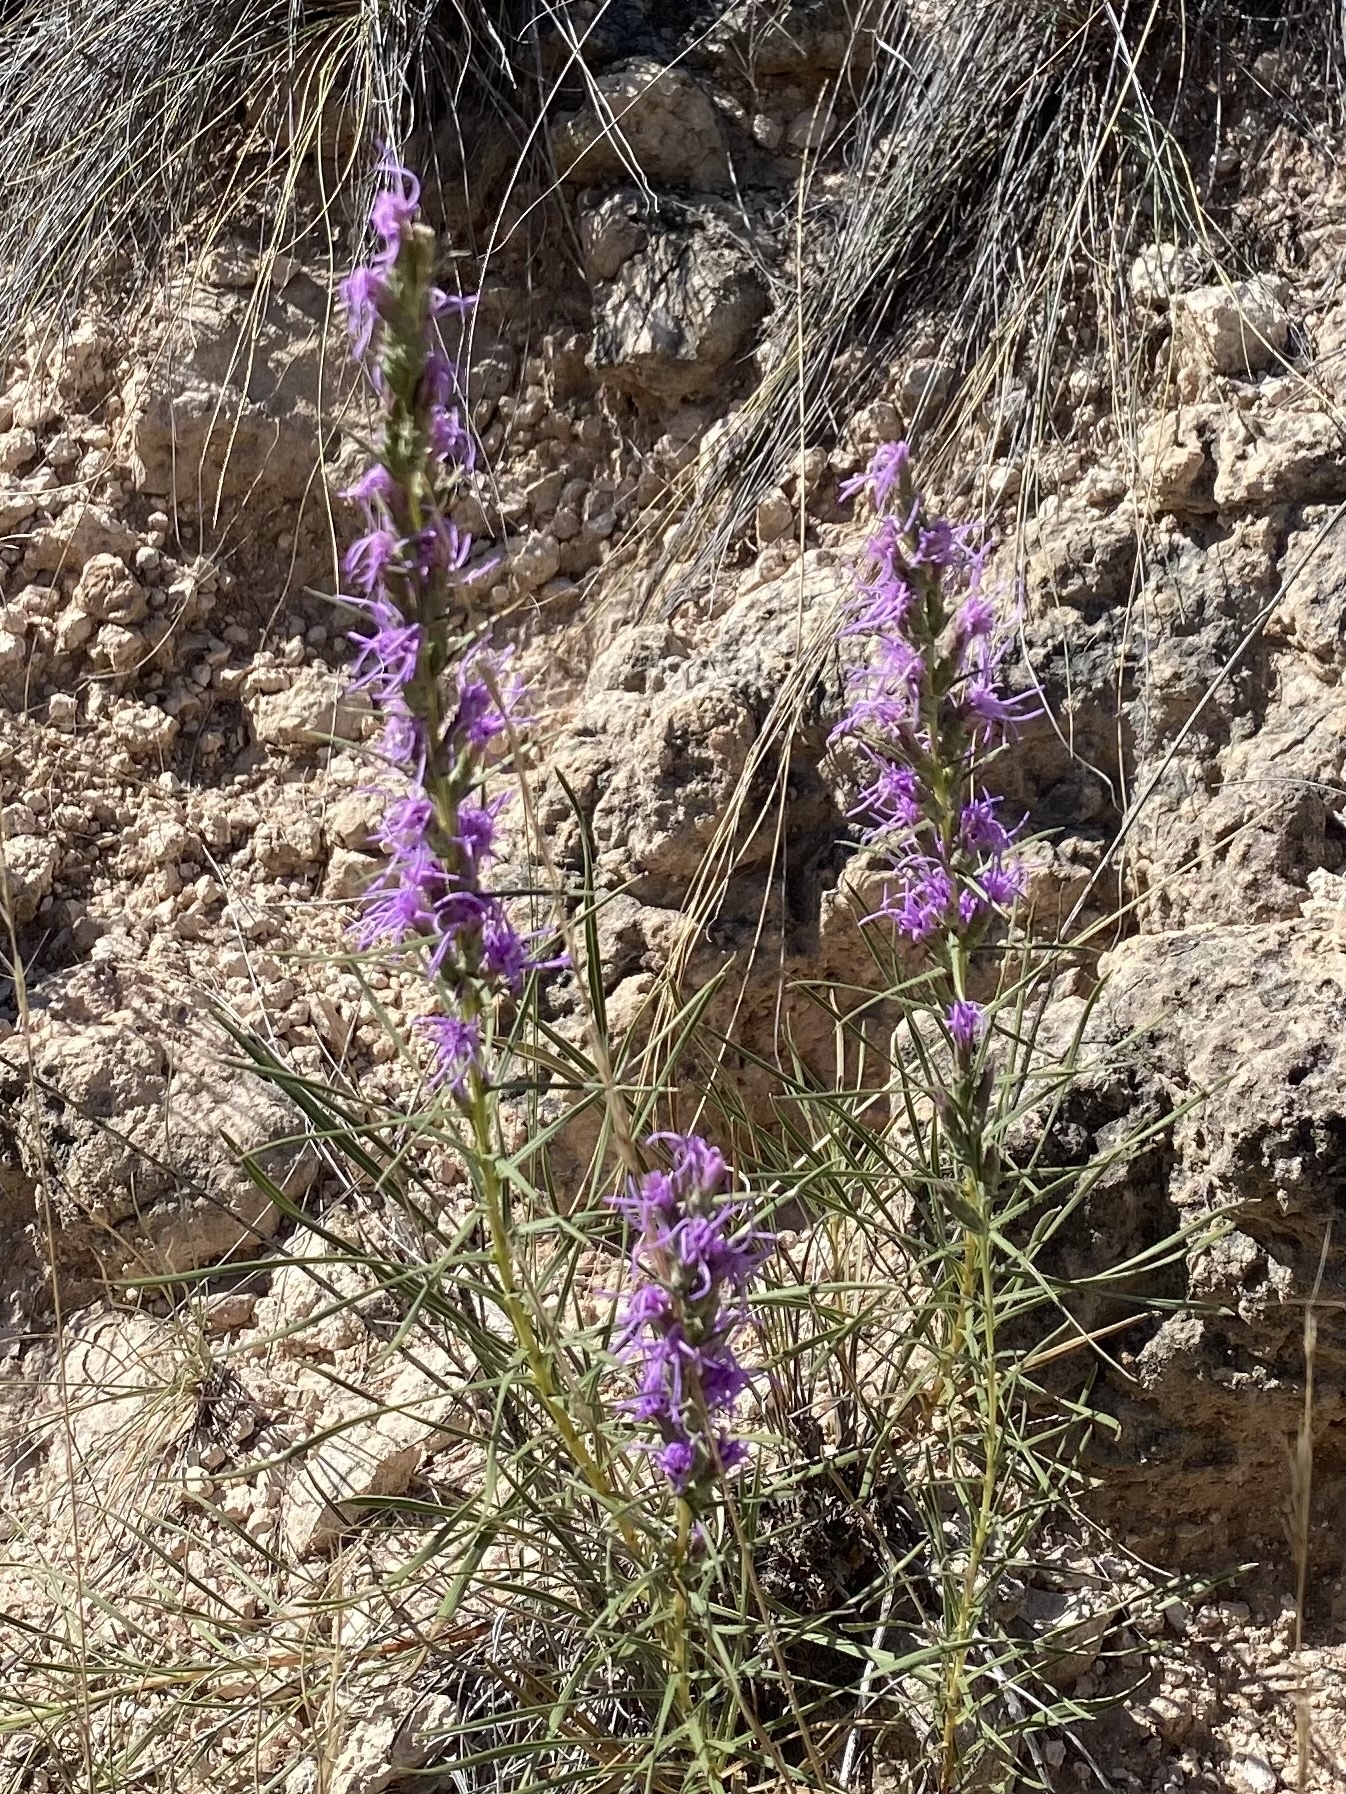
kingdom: Plantae
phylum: Tracheophyta
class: Magnoliopsida
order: Asterales
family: Asteraceae
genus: Liatris
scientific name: Liatris punctata
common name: Dotted gayfeather
